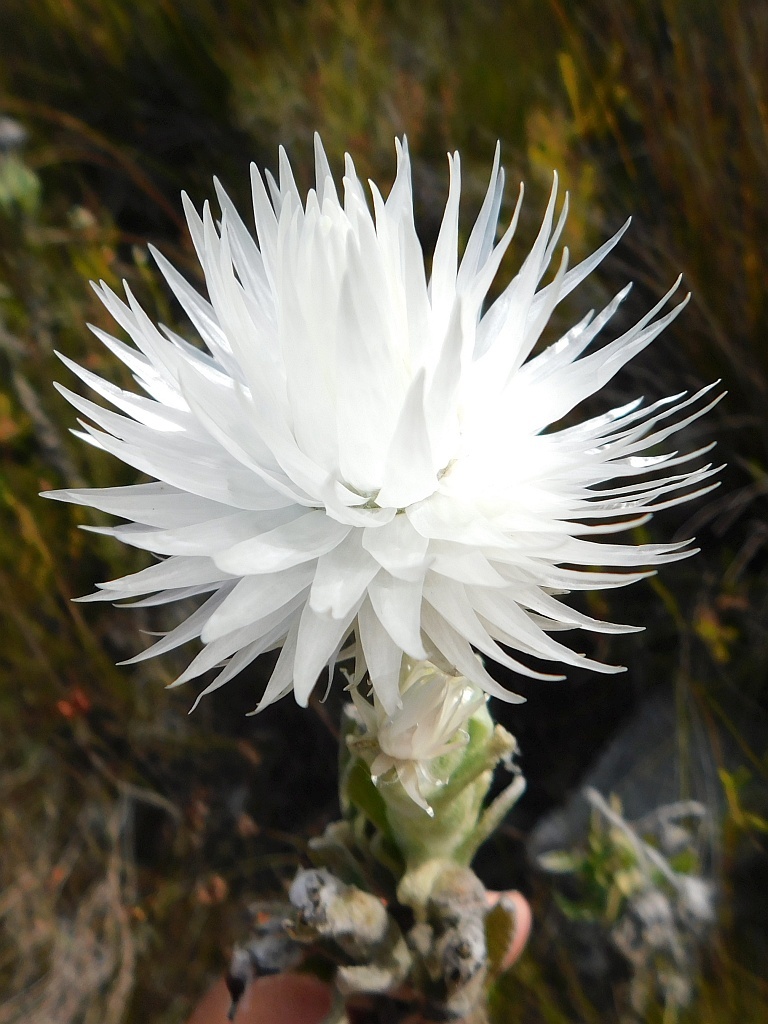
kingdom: Plantae
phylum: Tracheophyta
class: Magnoliopsida
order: Asterales
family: Asteraceae
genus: Syncarpha
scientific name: Syncarpha vestita
